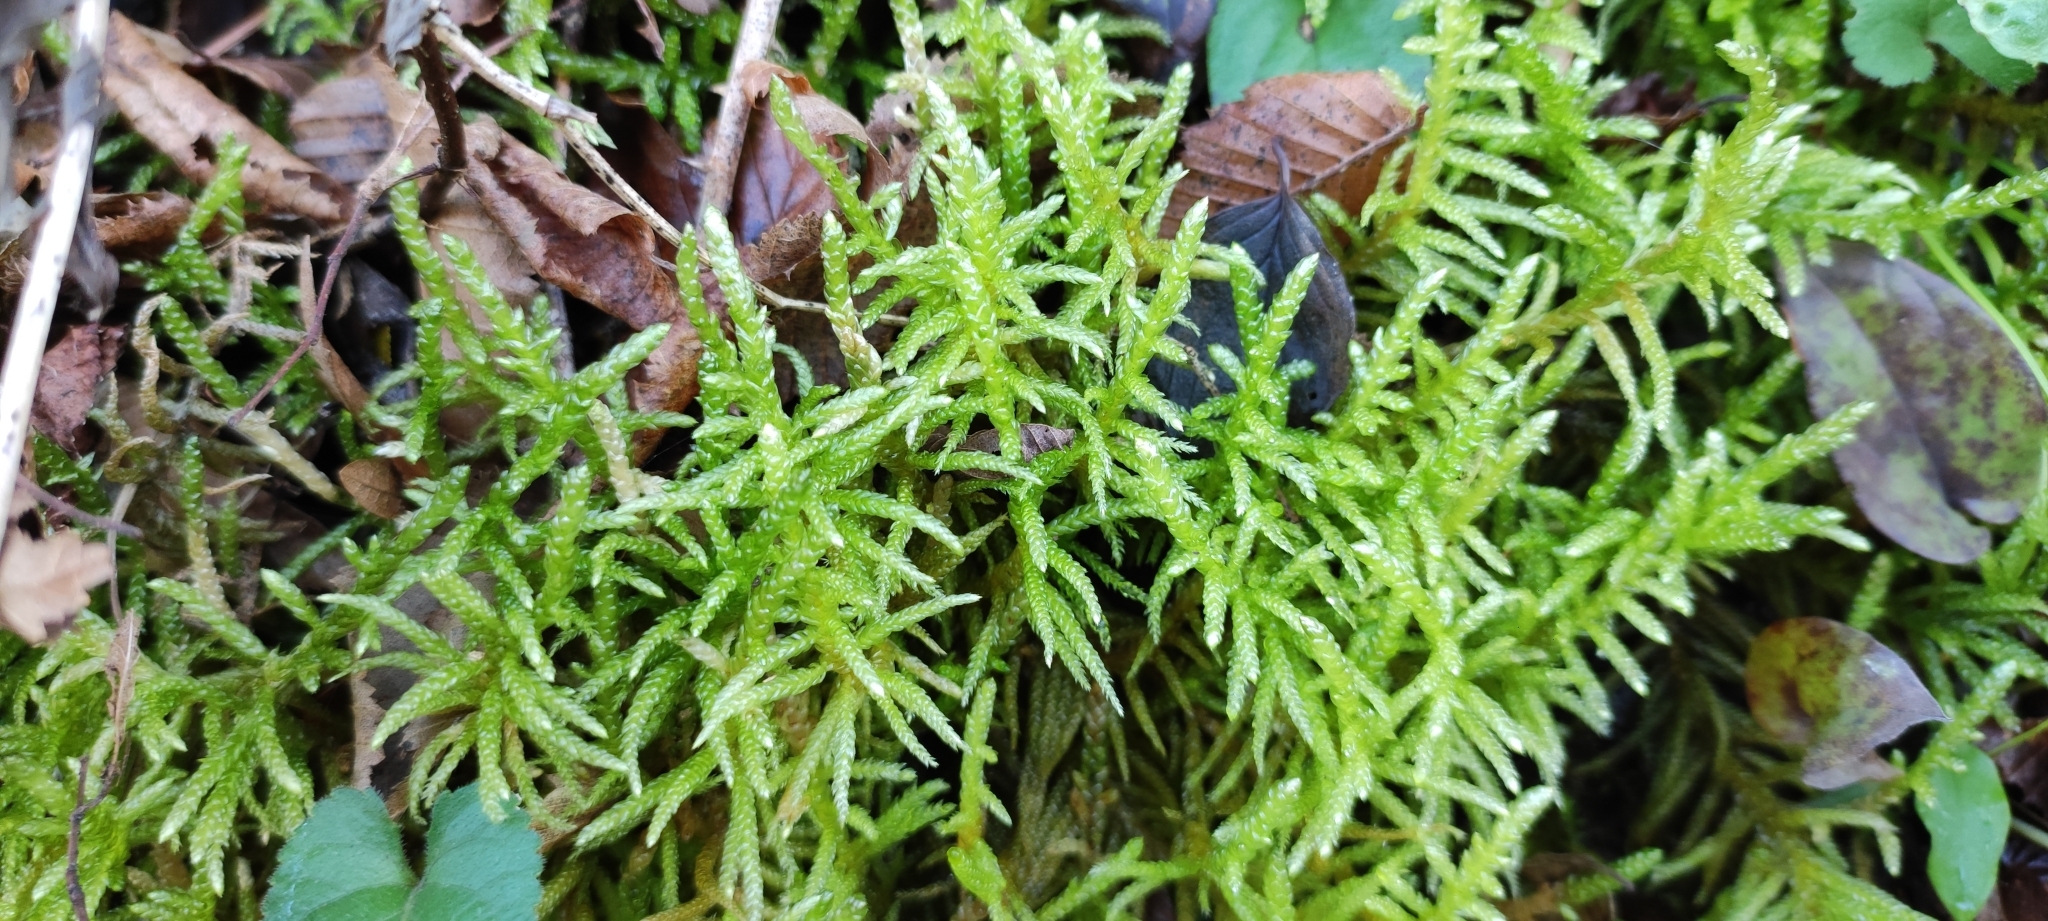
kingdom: Plantae
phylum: Bryophyta
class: Bryopsida
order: Hypnales
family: Brachytheciaceae
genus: Pseudoscleropodium
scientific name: Pseudoscleropodium purum
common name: Neat feather-moss
